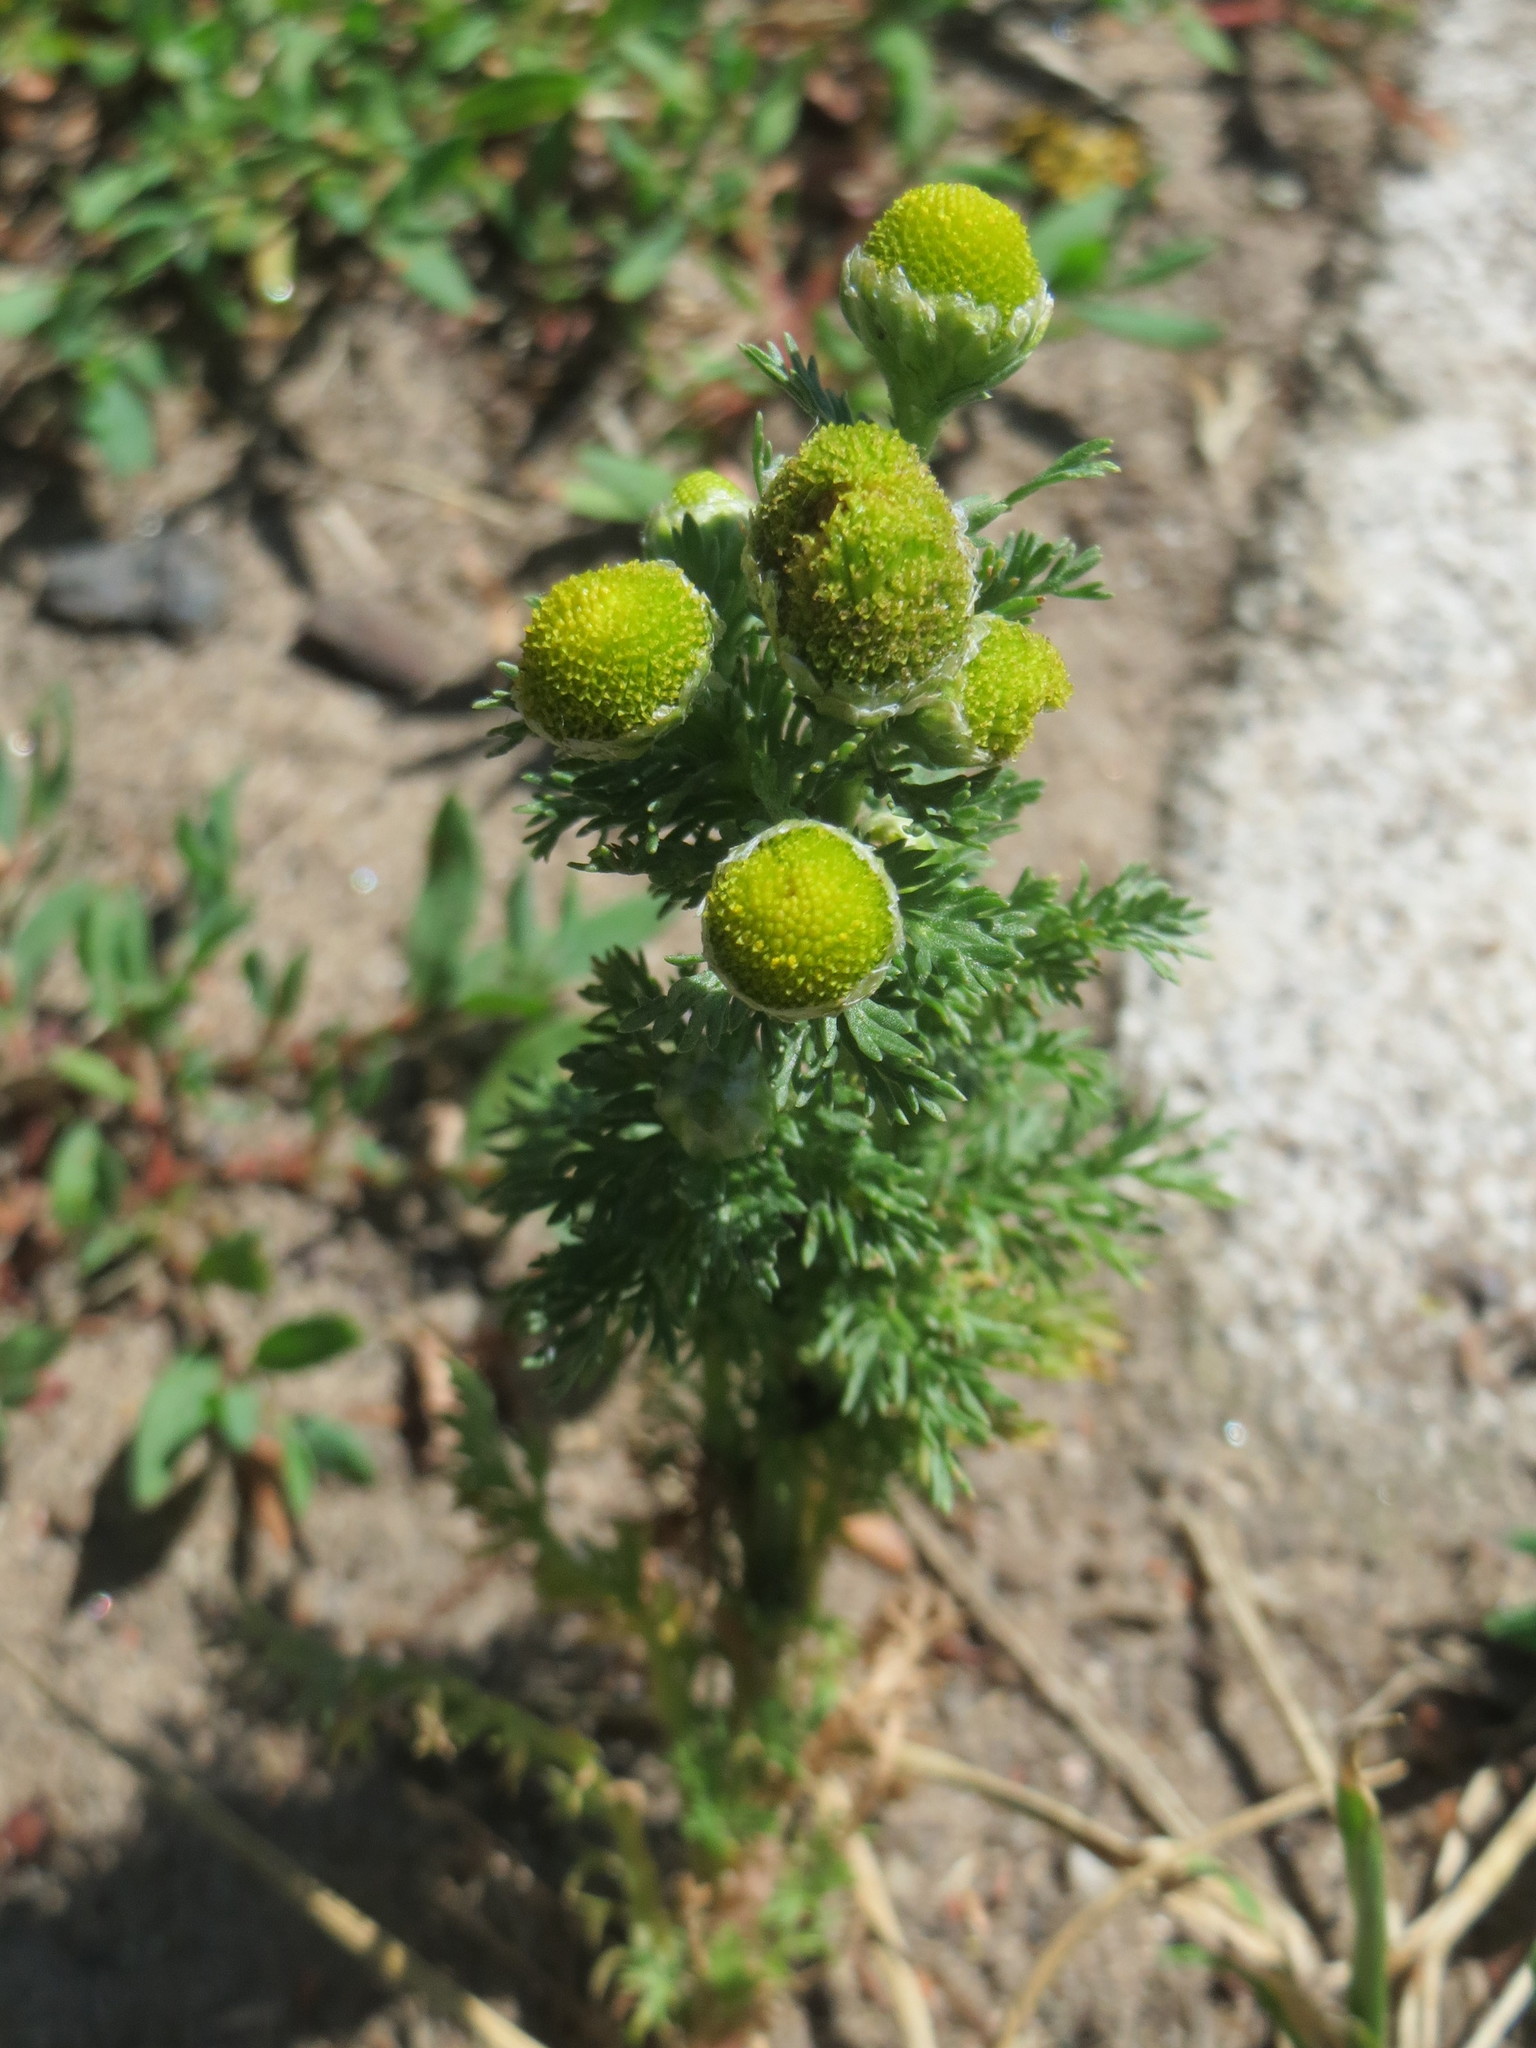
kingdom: Plantae
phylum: Tracheophyta
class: Magnoliopsida
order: Asterales
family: Asteraceae
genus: Matricaria
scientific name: Matricaria discoidea
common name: Disc mayweed
